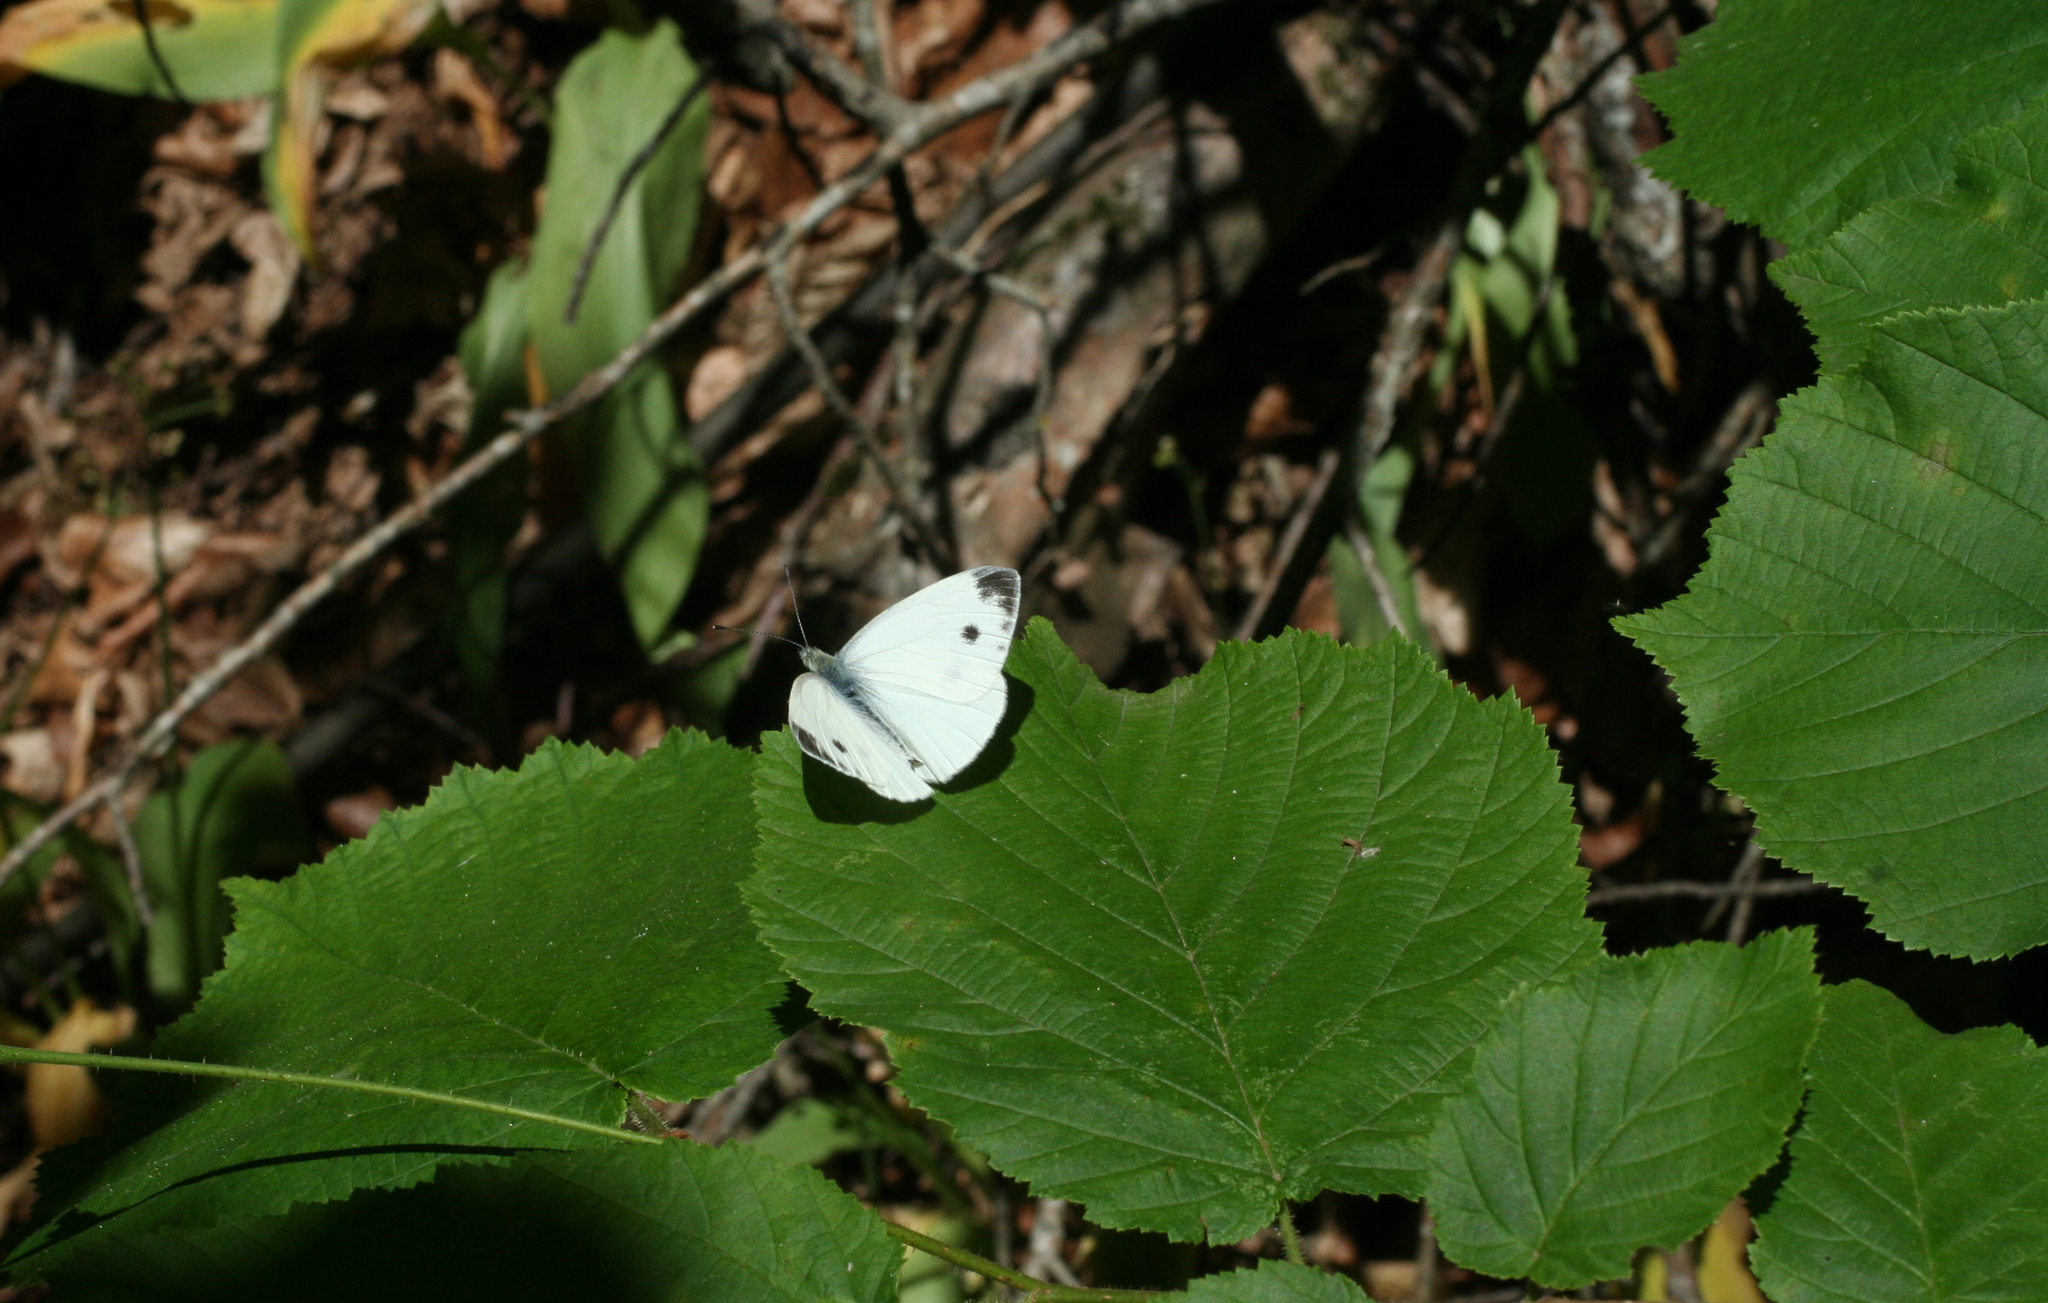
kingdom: Plantae
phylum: Tracheophyta
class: Magnoliopsida
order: Fagales
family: Betulaceae
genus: Corylus
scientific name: Corylus avellana
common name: European hazel
